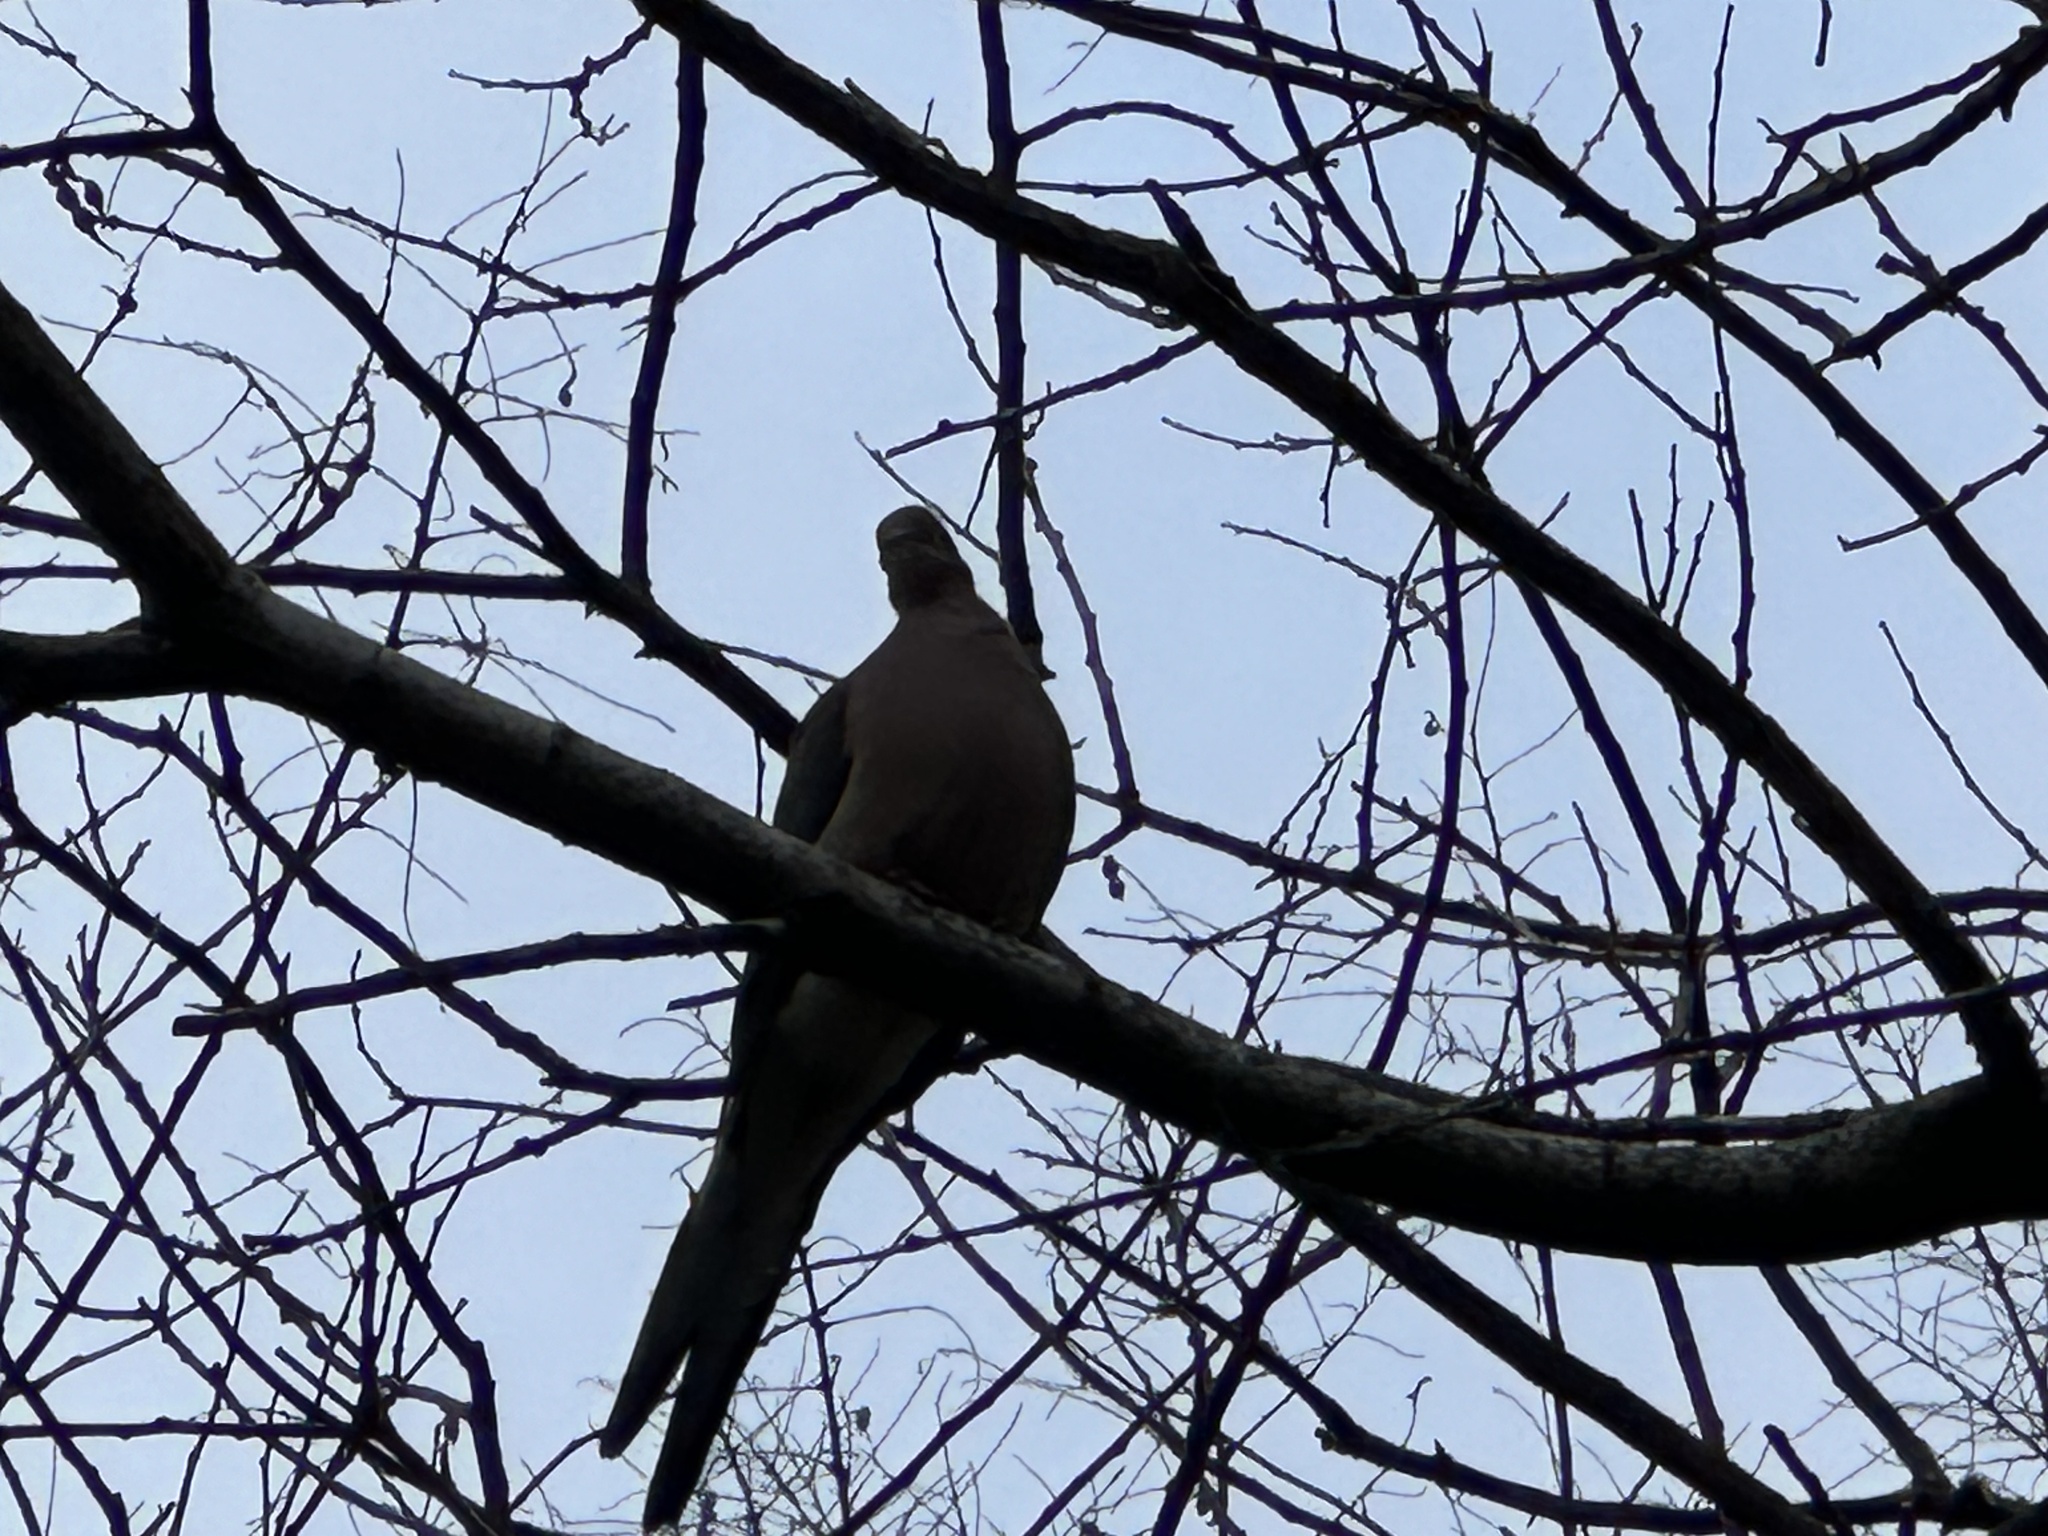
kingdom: Animalia
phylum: Chordata
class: Aves
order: Columbiformes
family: Columbidae
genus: Zenaida
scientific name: Zenaida macroura
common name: Mourning dove
